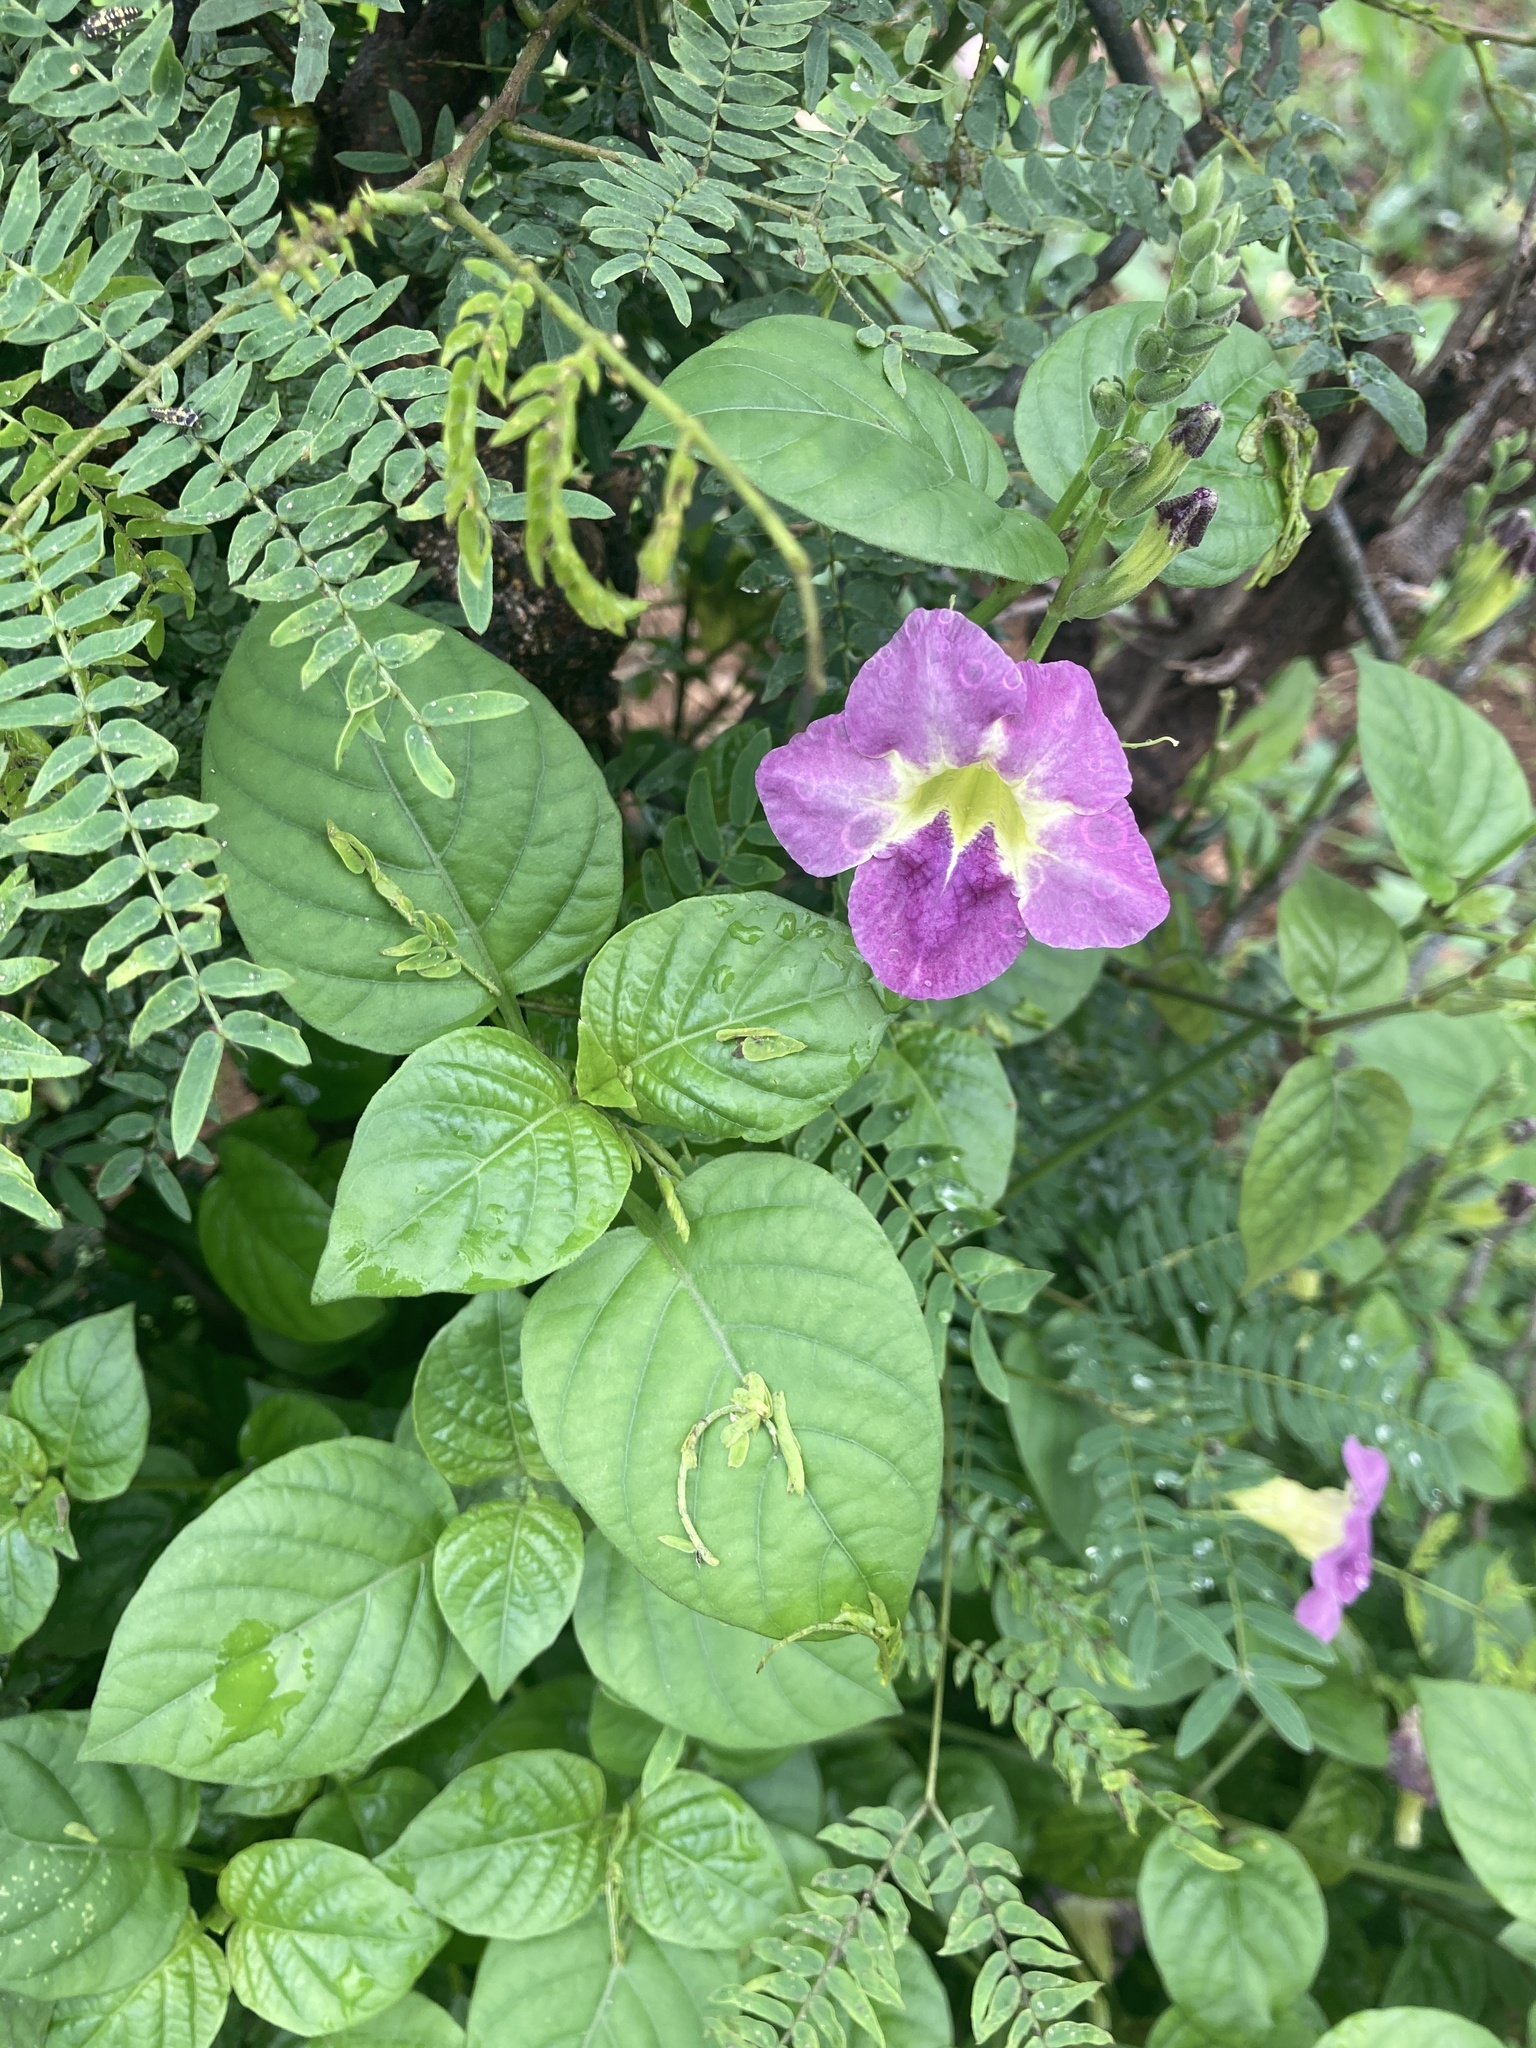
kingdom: Plantae
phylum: Tracheophyta
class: Magnoliopsida
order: Lamiales
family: Acanthaceae
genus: Asystasia
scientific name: Asystasia gangetica
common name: Chinese violet
